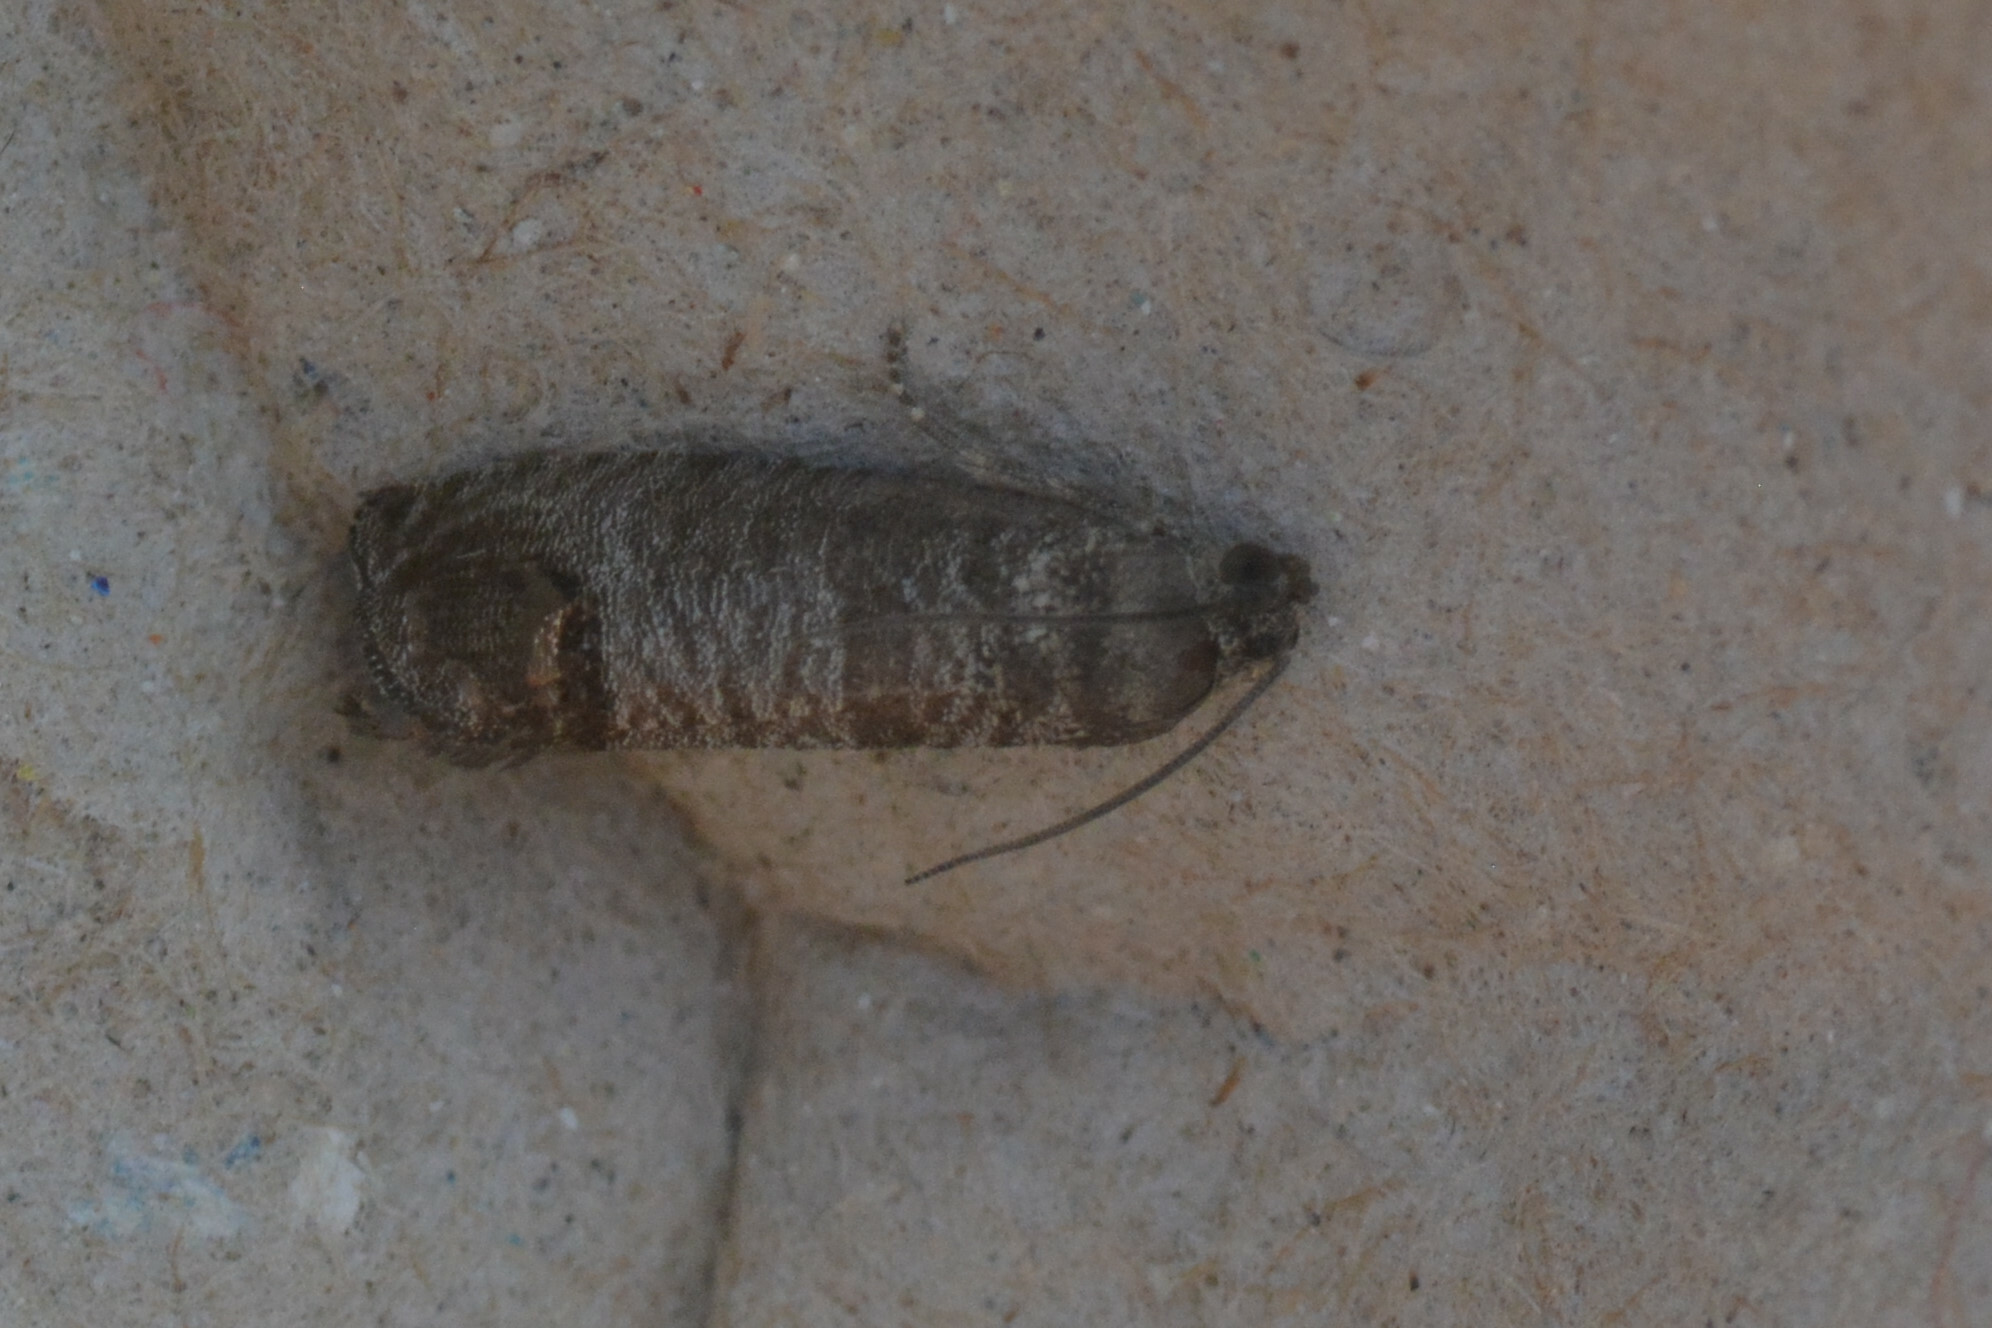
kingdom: Animalia
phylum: Arthropoda
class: Insecta
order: Lepidoptera
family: Tortricidae
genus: Cydia
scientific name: Cydia pomonella
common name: Codling moth
